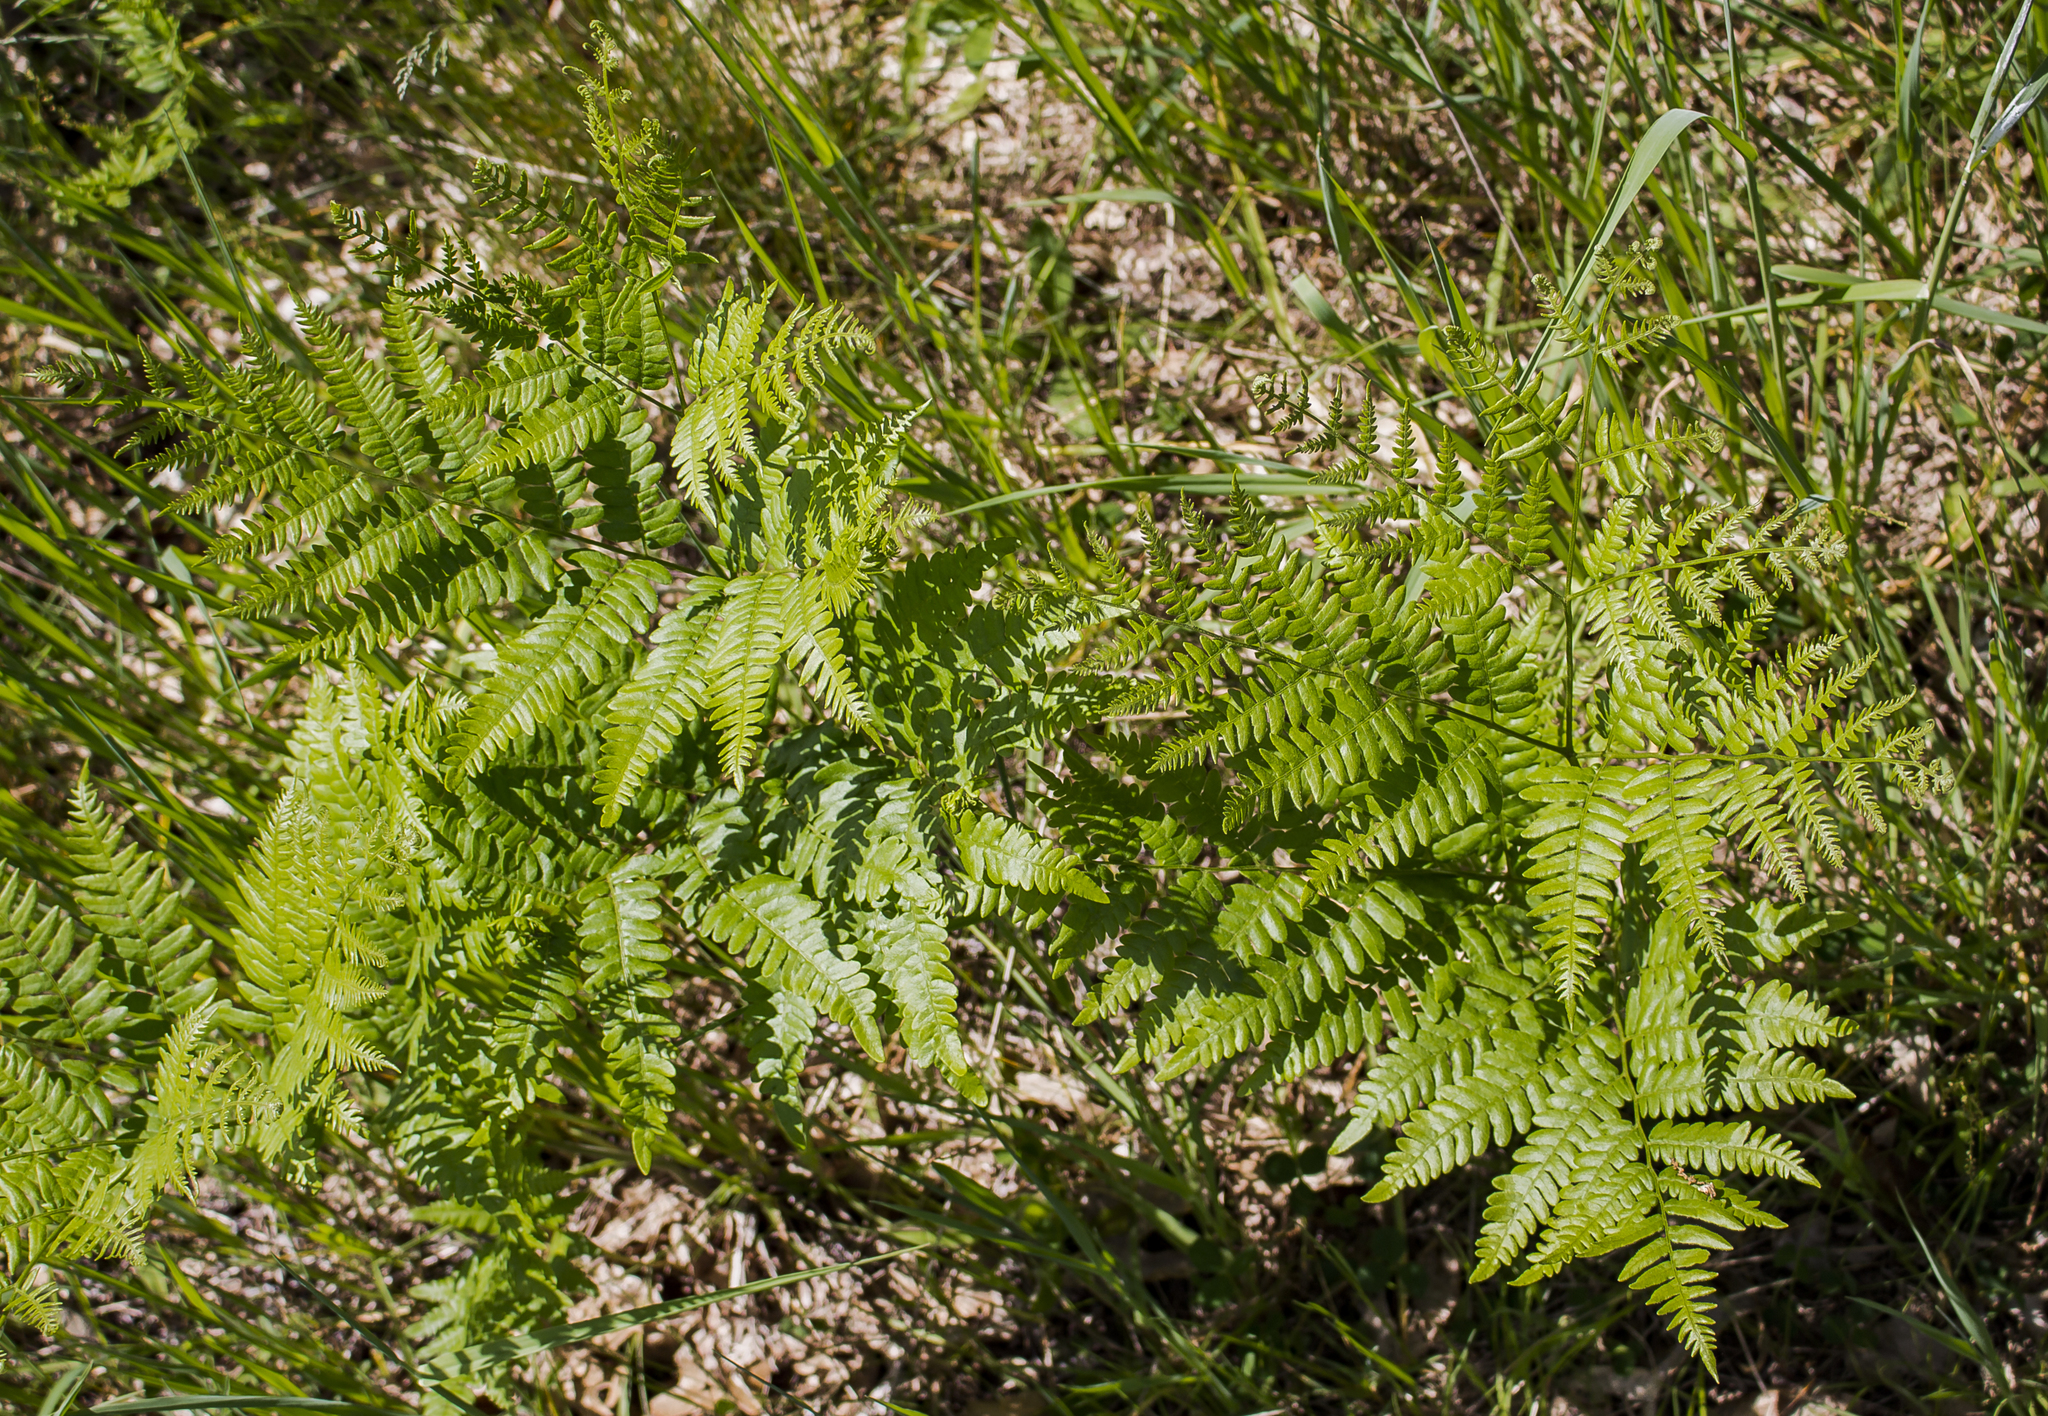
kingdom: Plantae
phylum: Tracheophyta
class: Polypodiopsida
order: Polypodiales
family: Dennstaedtiaceae
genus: Pteridium
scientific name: Pteridium aquilinum
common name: Bracken
